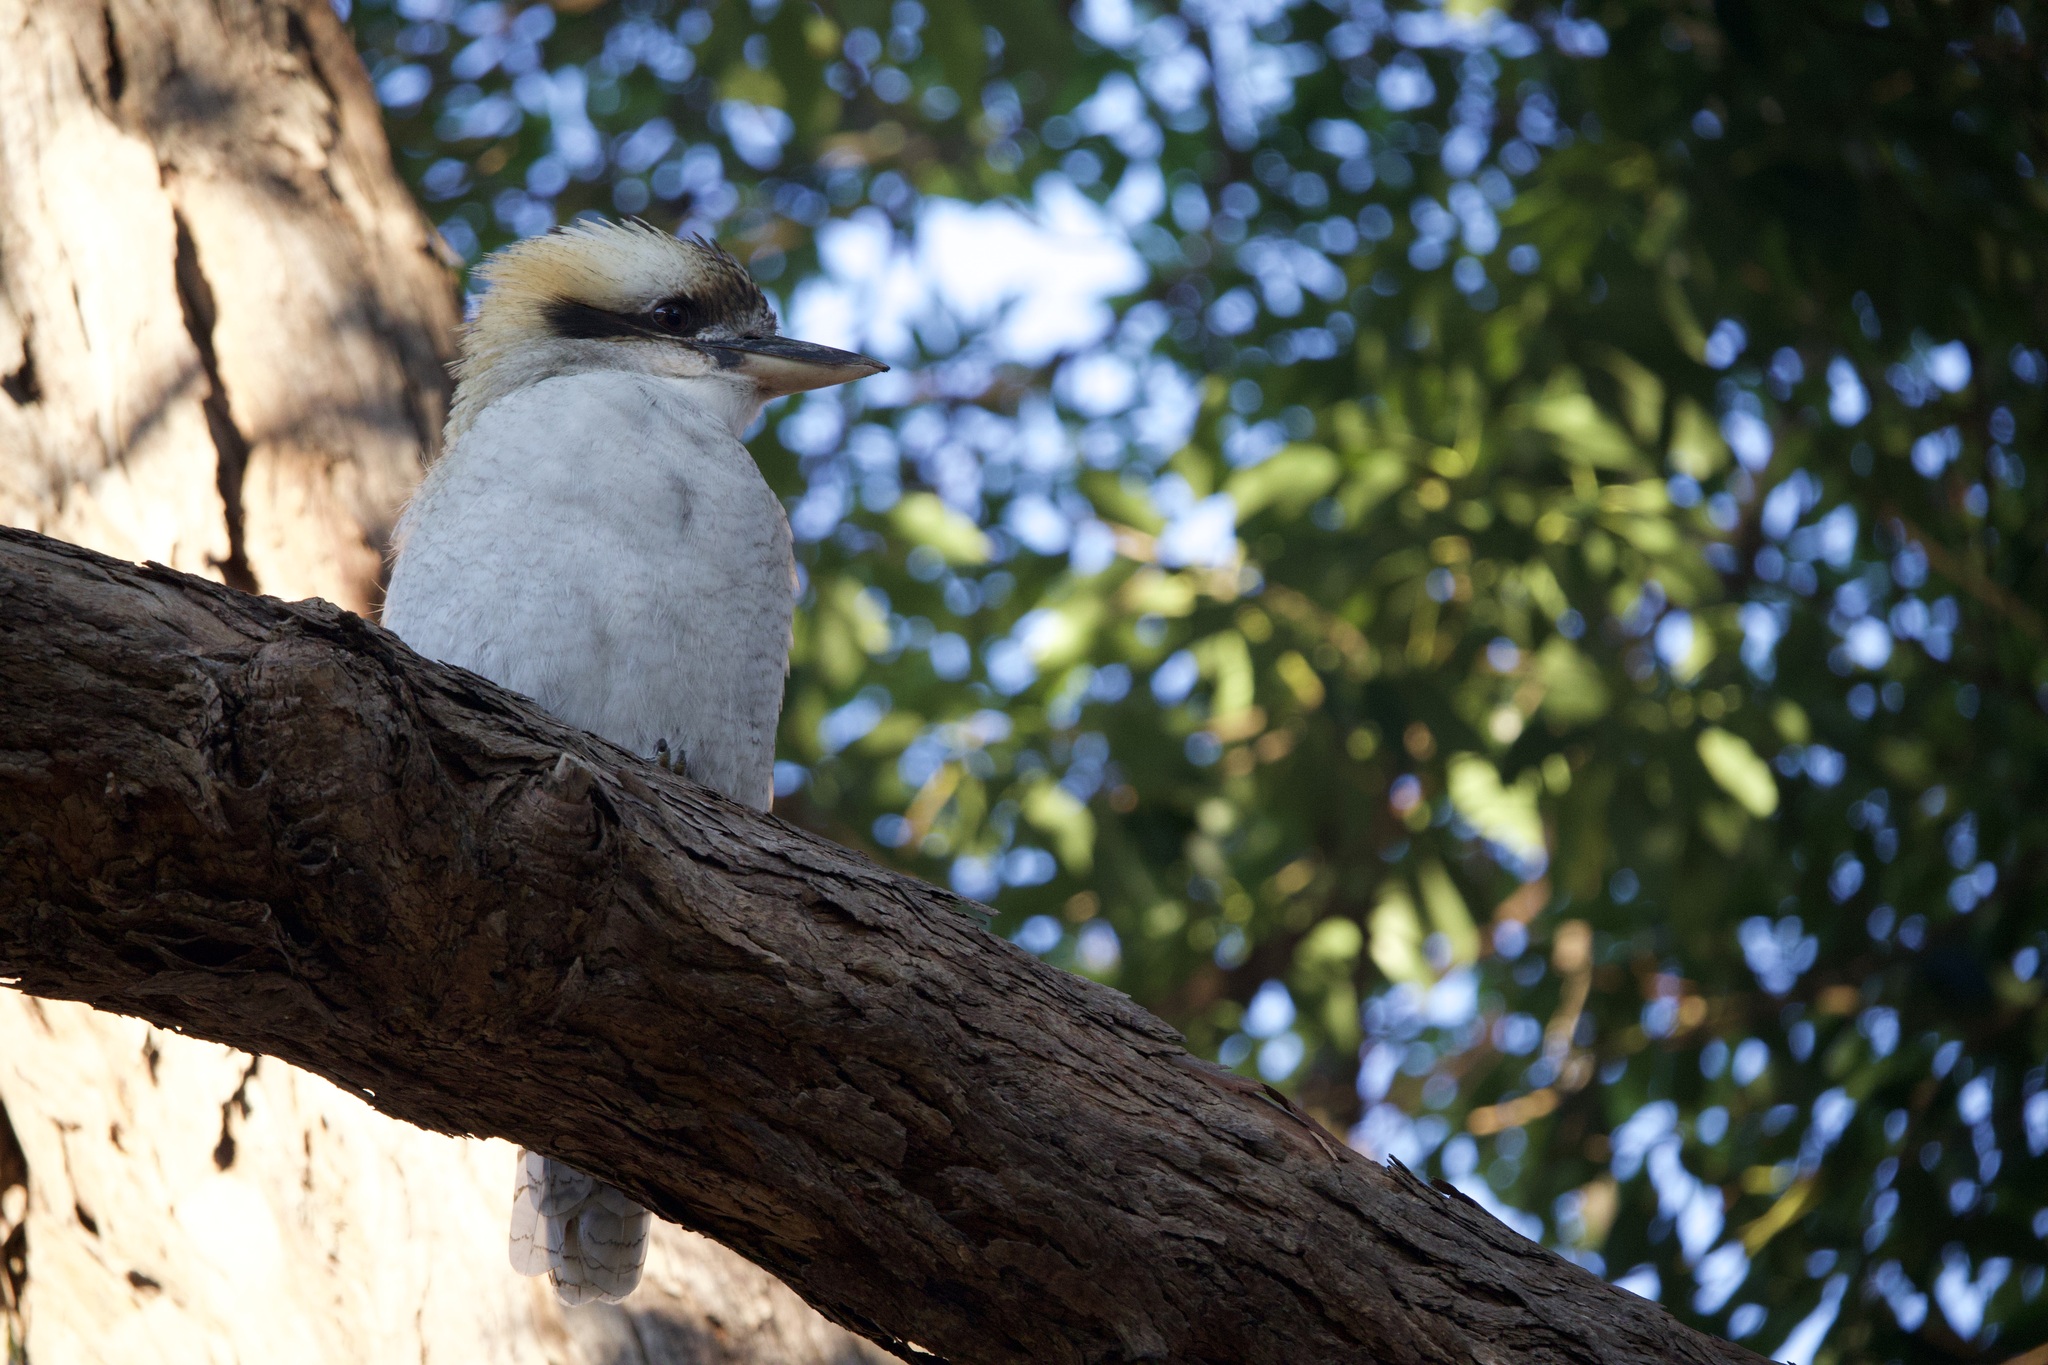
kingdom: Animalia
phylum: Chordata
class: Aves
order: Coraciiformes
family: Alcedinidae
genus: Dacelo
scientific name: Dacelo novaeguineae
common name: Laughing kookaburra
